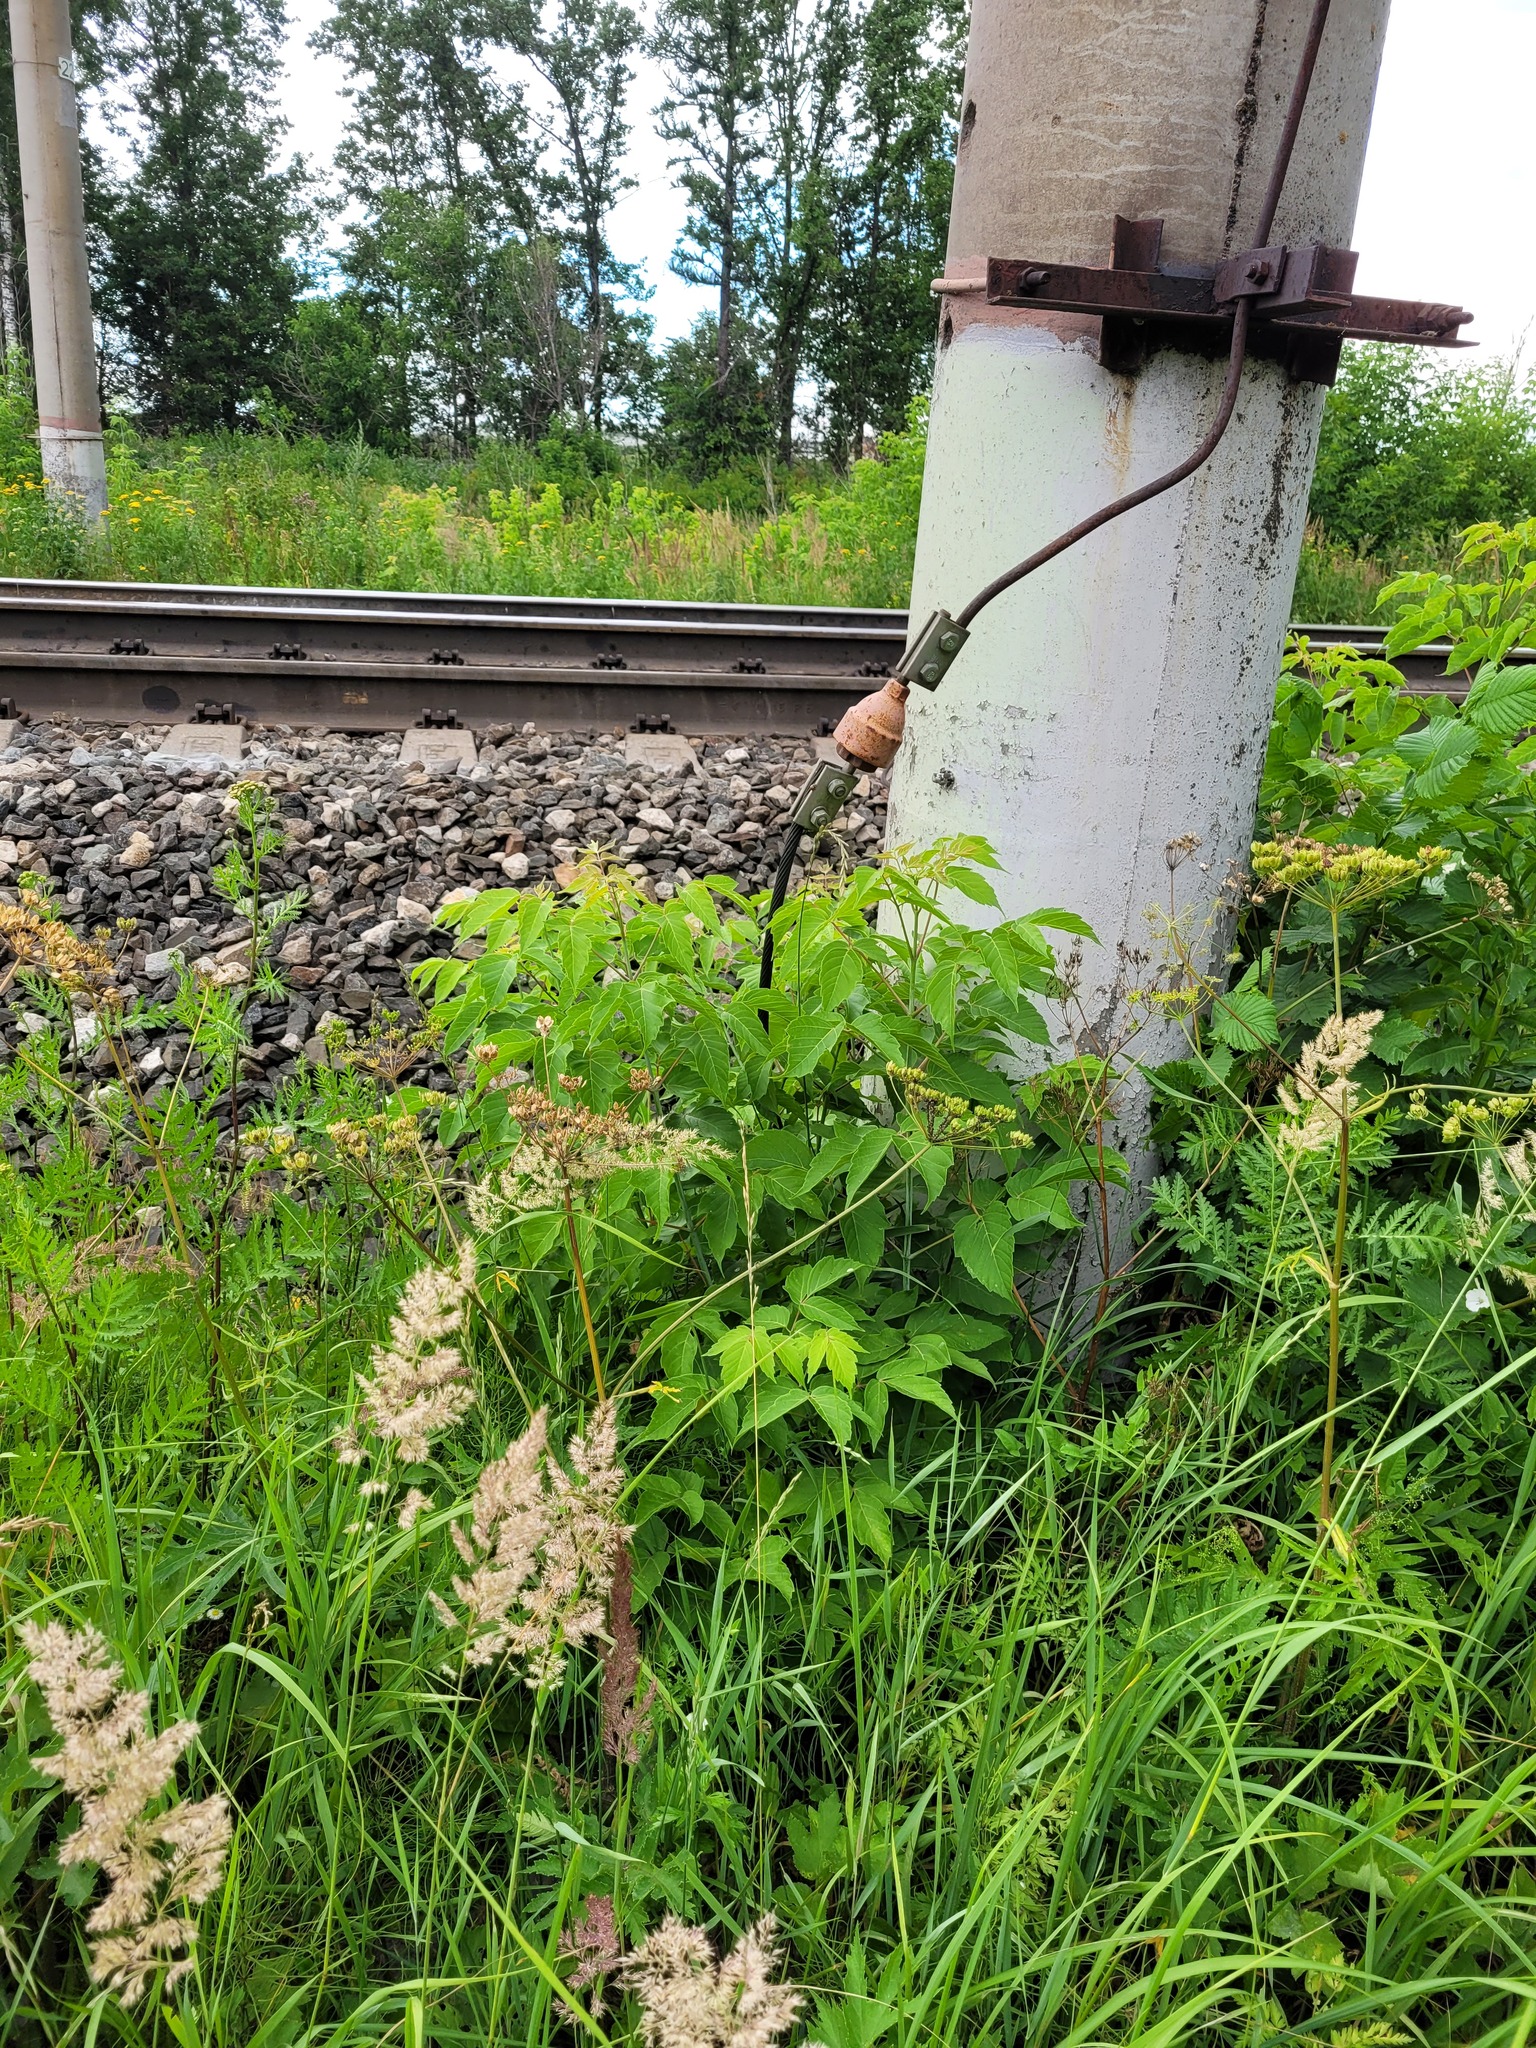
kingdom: Plantae
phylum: Tracheophyta
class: Magnoliopsida
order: Sapindales
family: Sapindaceae
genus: Acer
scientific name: Acer negundo
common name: Ashleaf maple
